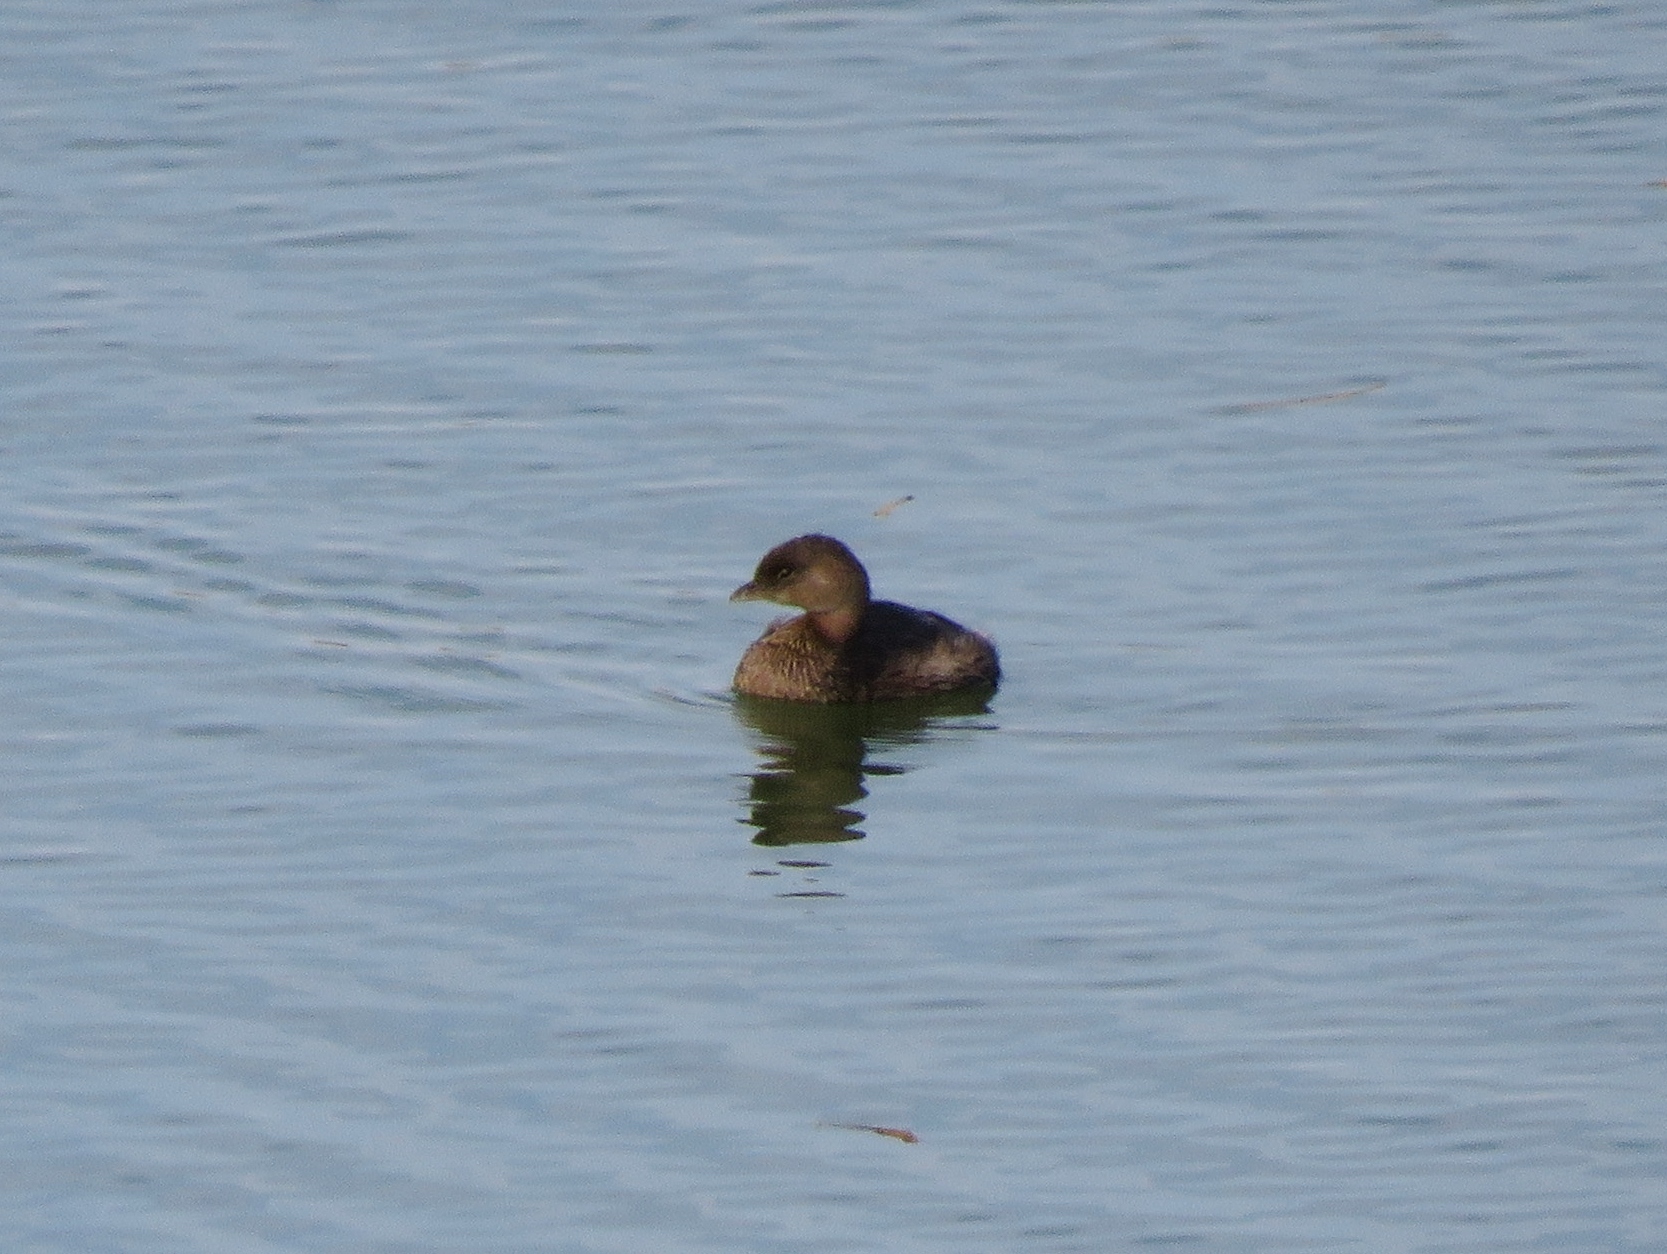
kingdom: Animalia
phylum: Chordata
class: Aves
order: Podicipediformes
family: Podicipedidae
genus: Podilymbus
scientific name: Podilymbus podiceps
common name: Pied-billed grebe
